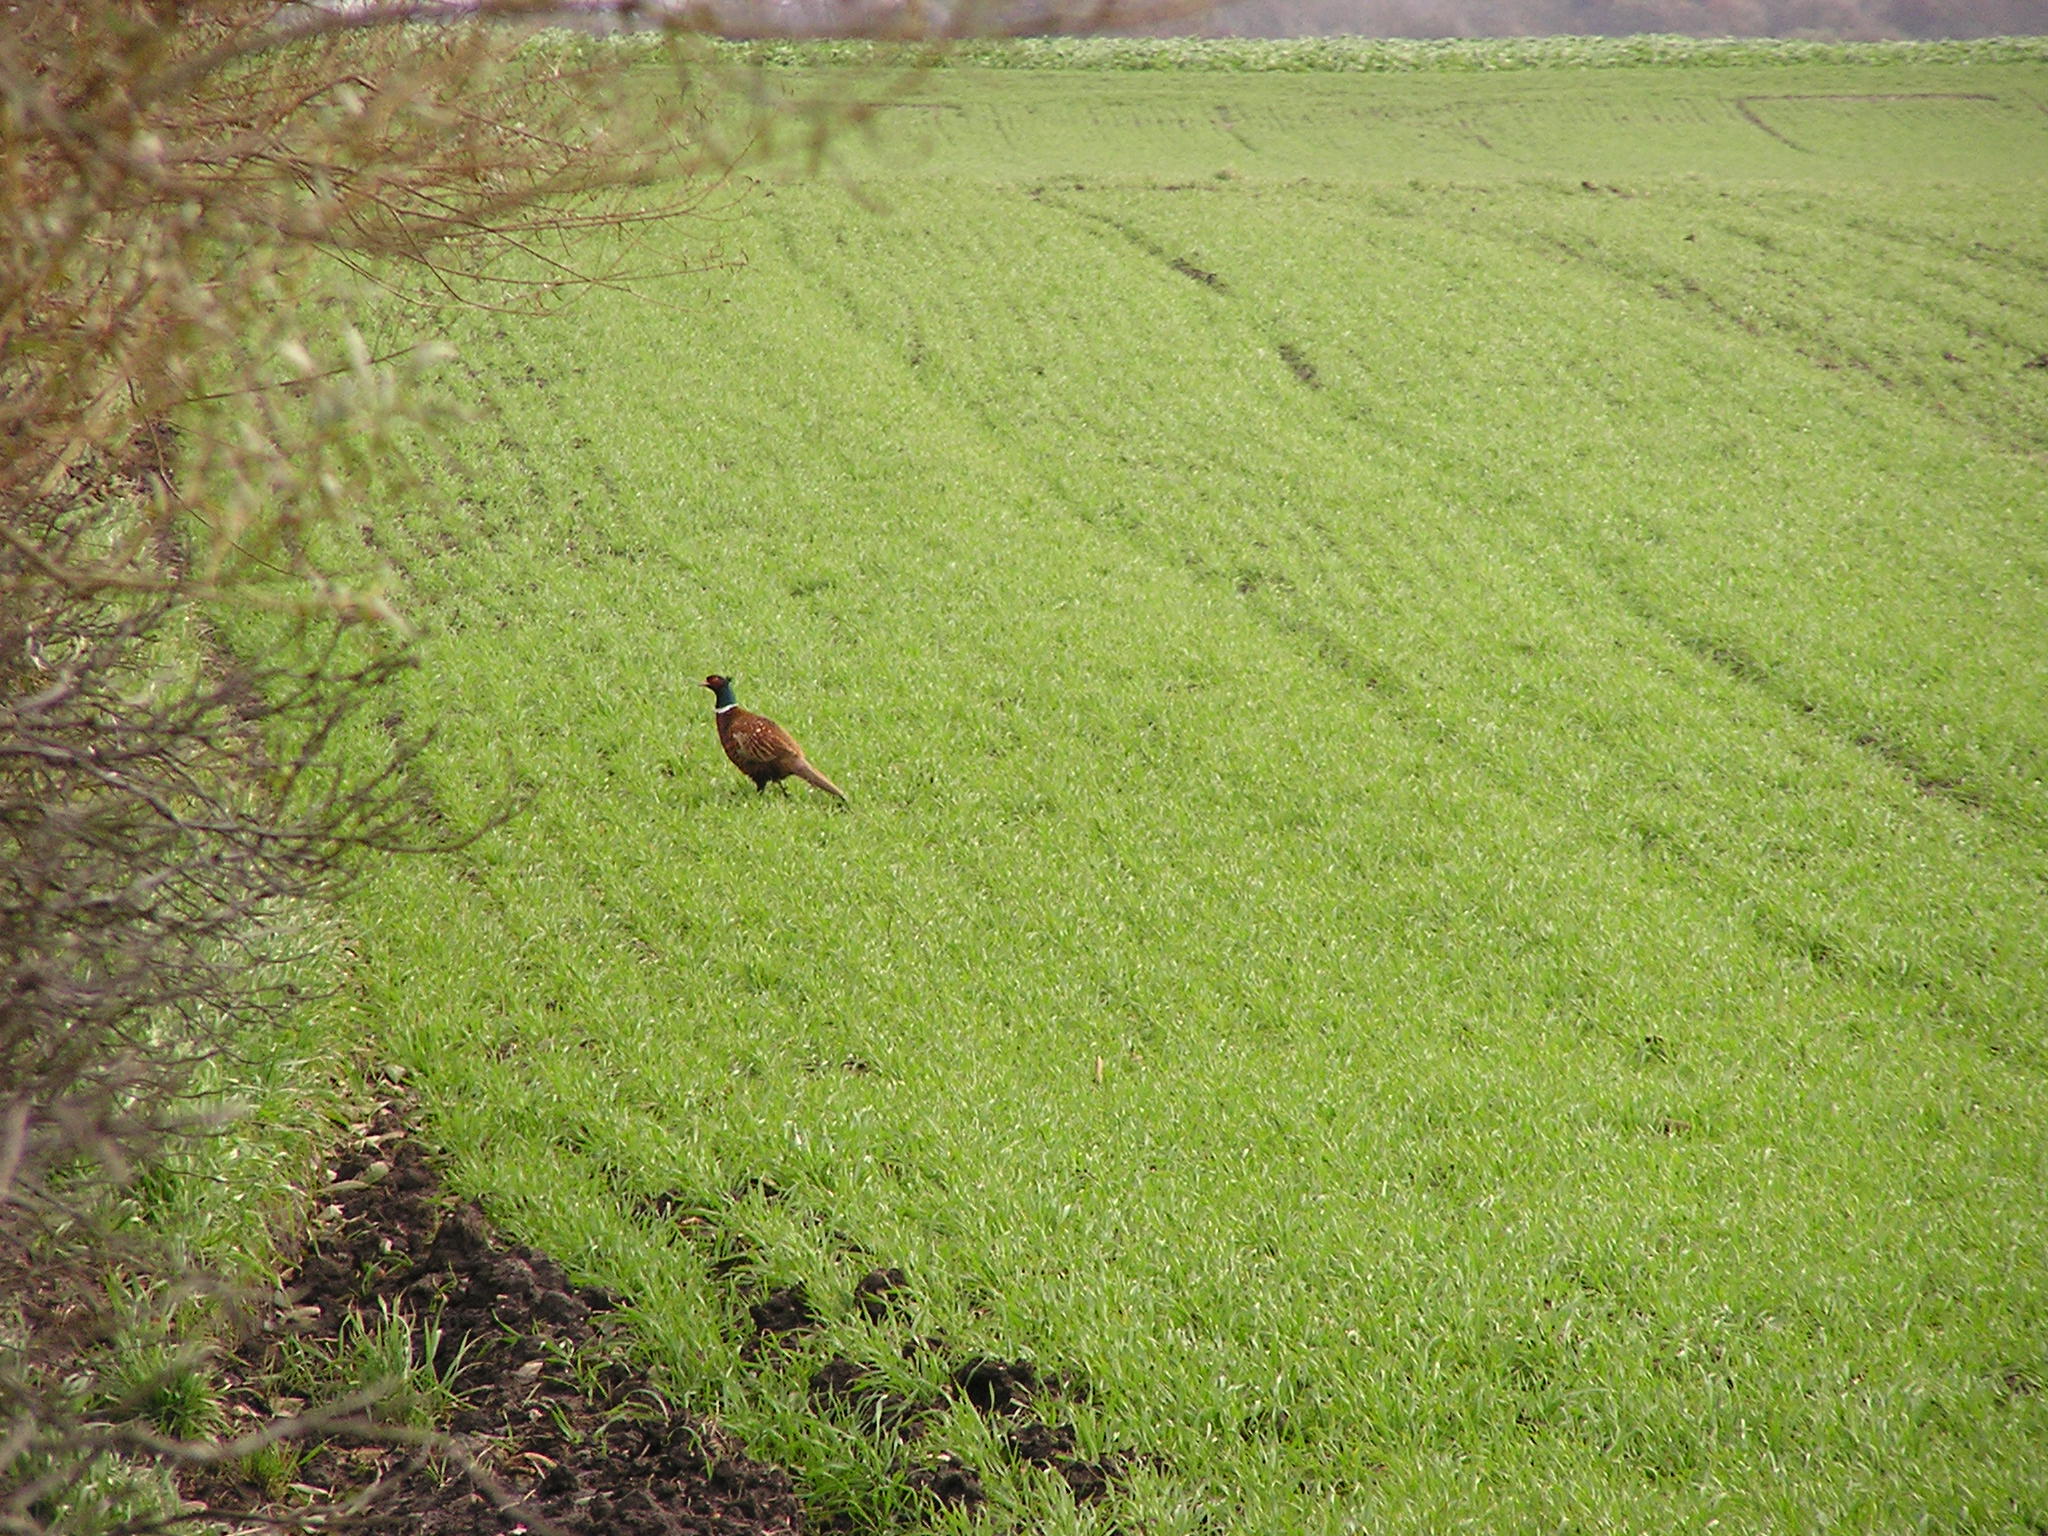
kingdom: Animalia
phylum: Chordata
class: Aves
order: Galliformes
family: Phasianidae
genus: Phasianus
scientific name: Phasianus colchicus
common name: Common pheasant
